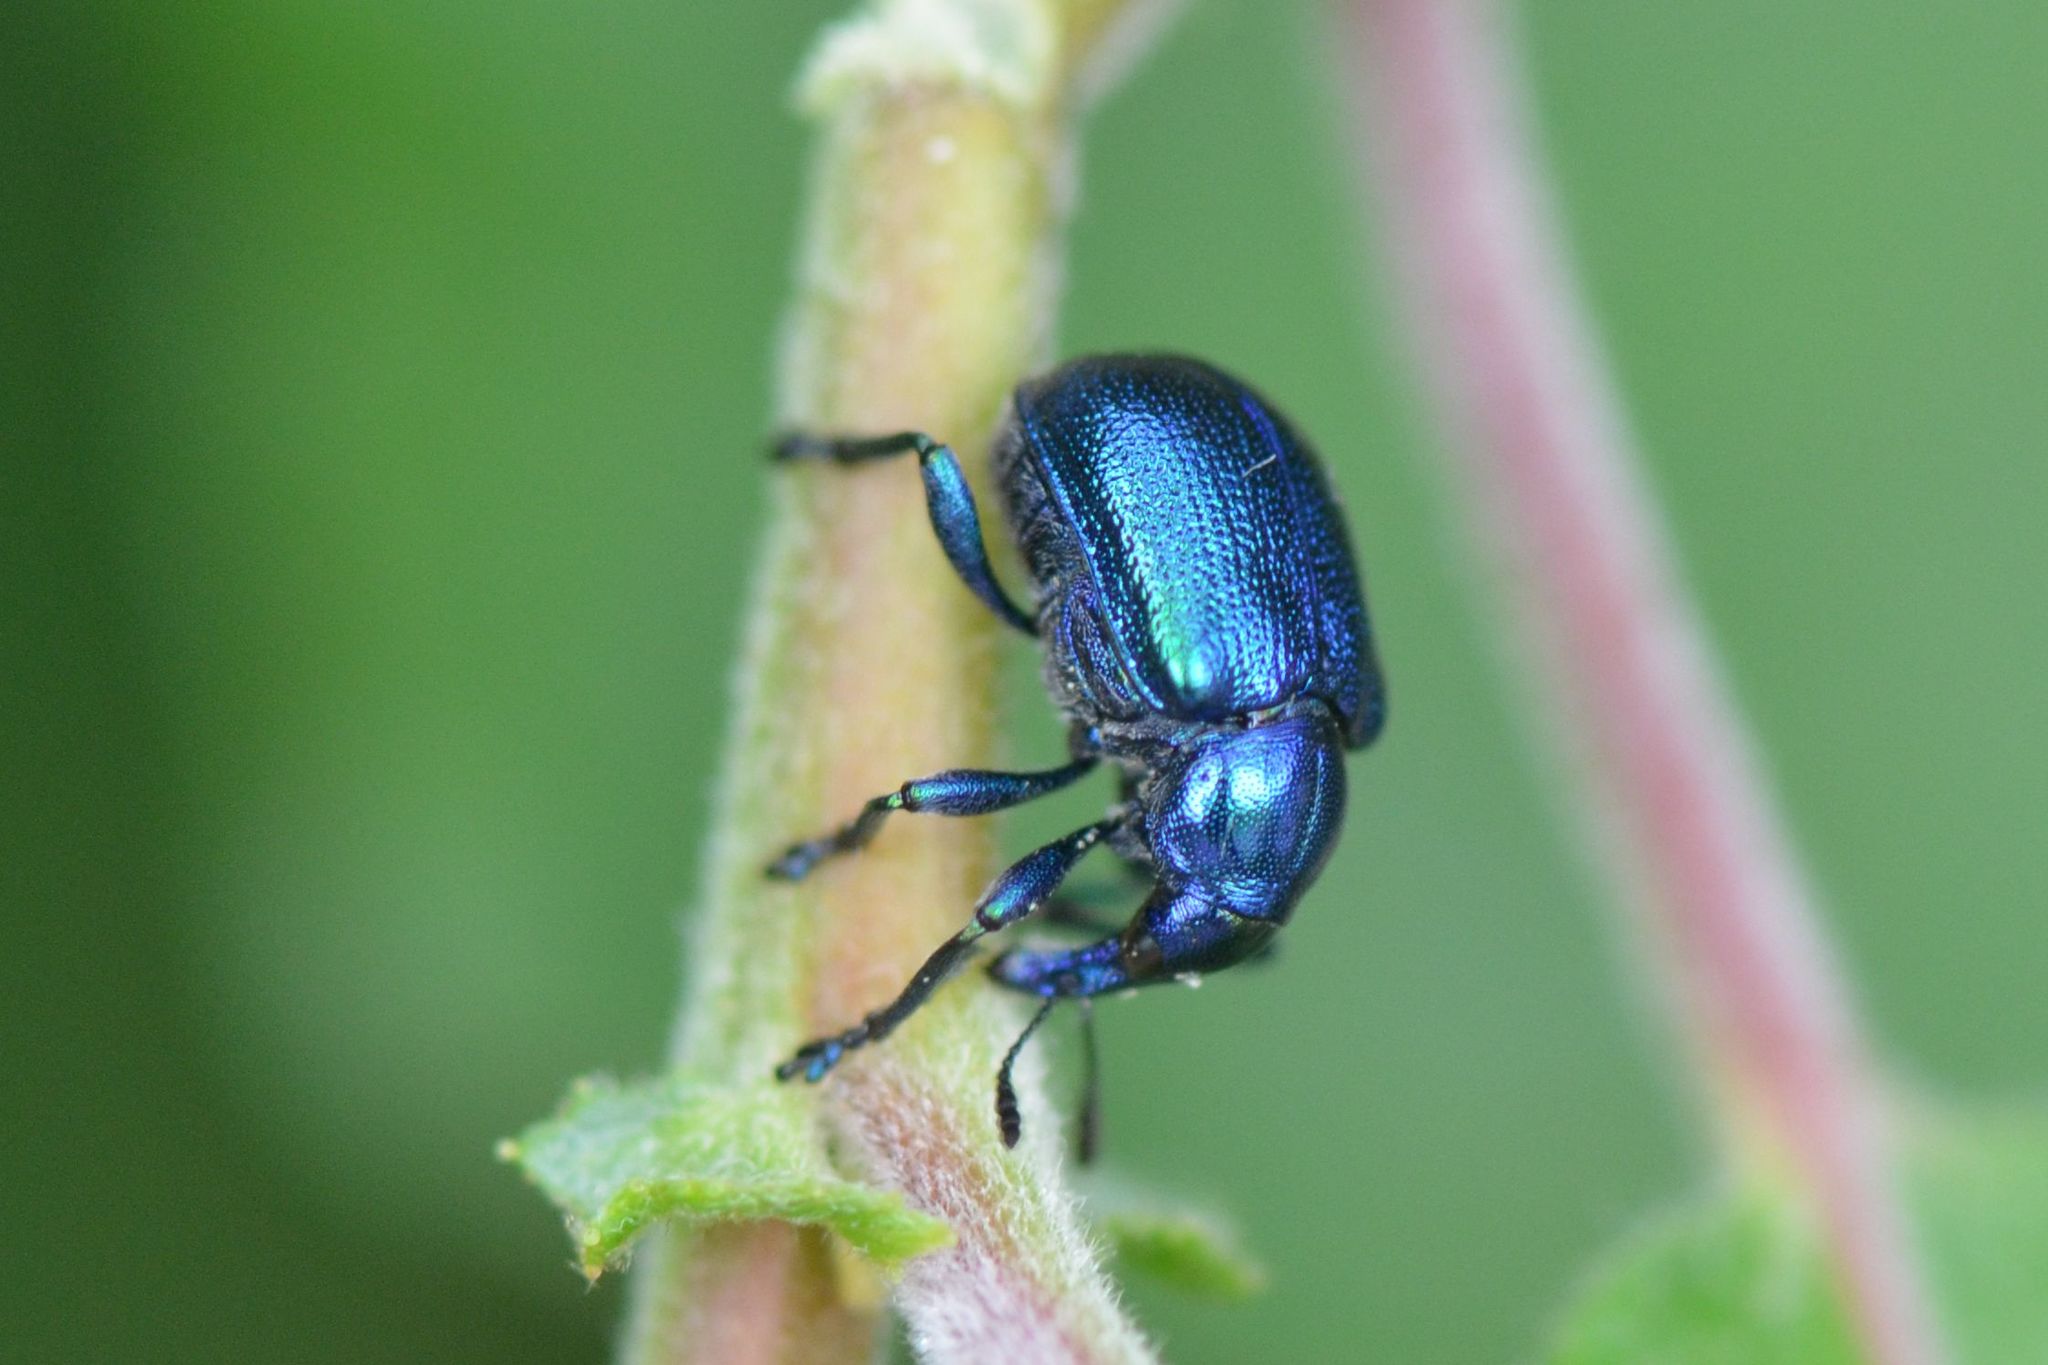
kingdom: Animalia
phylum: Arthropoda
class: Insecta
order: Coleoptera
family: Attelabidae
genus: Byctiscus
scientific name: Byctiscus betulae
